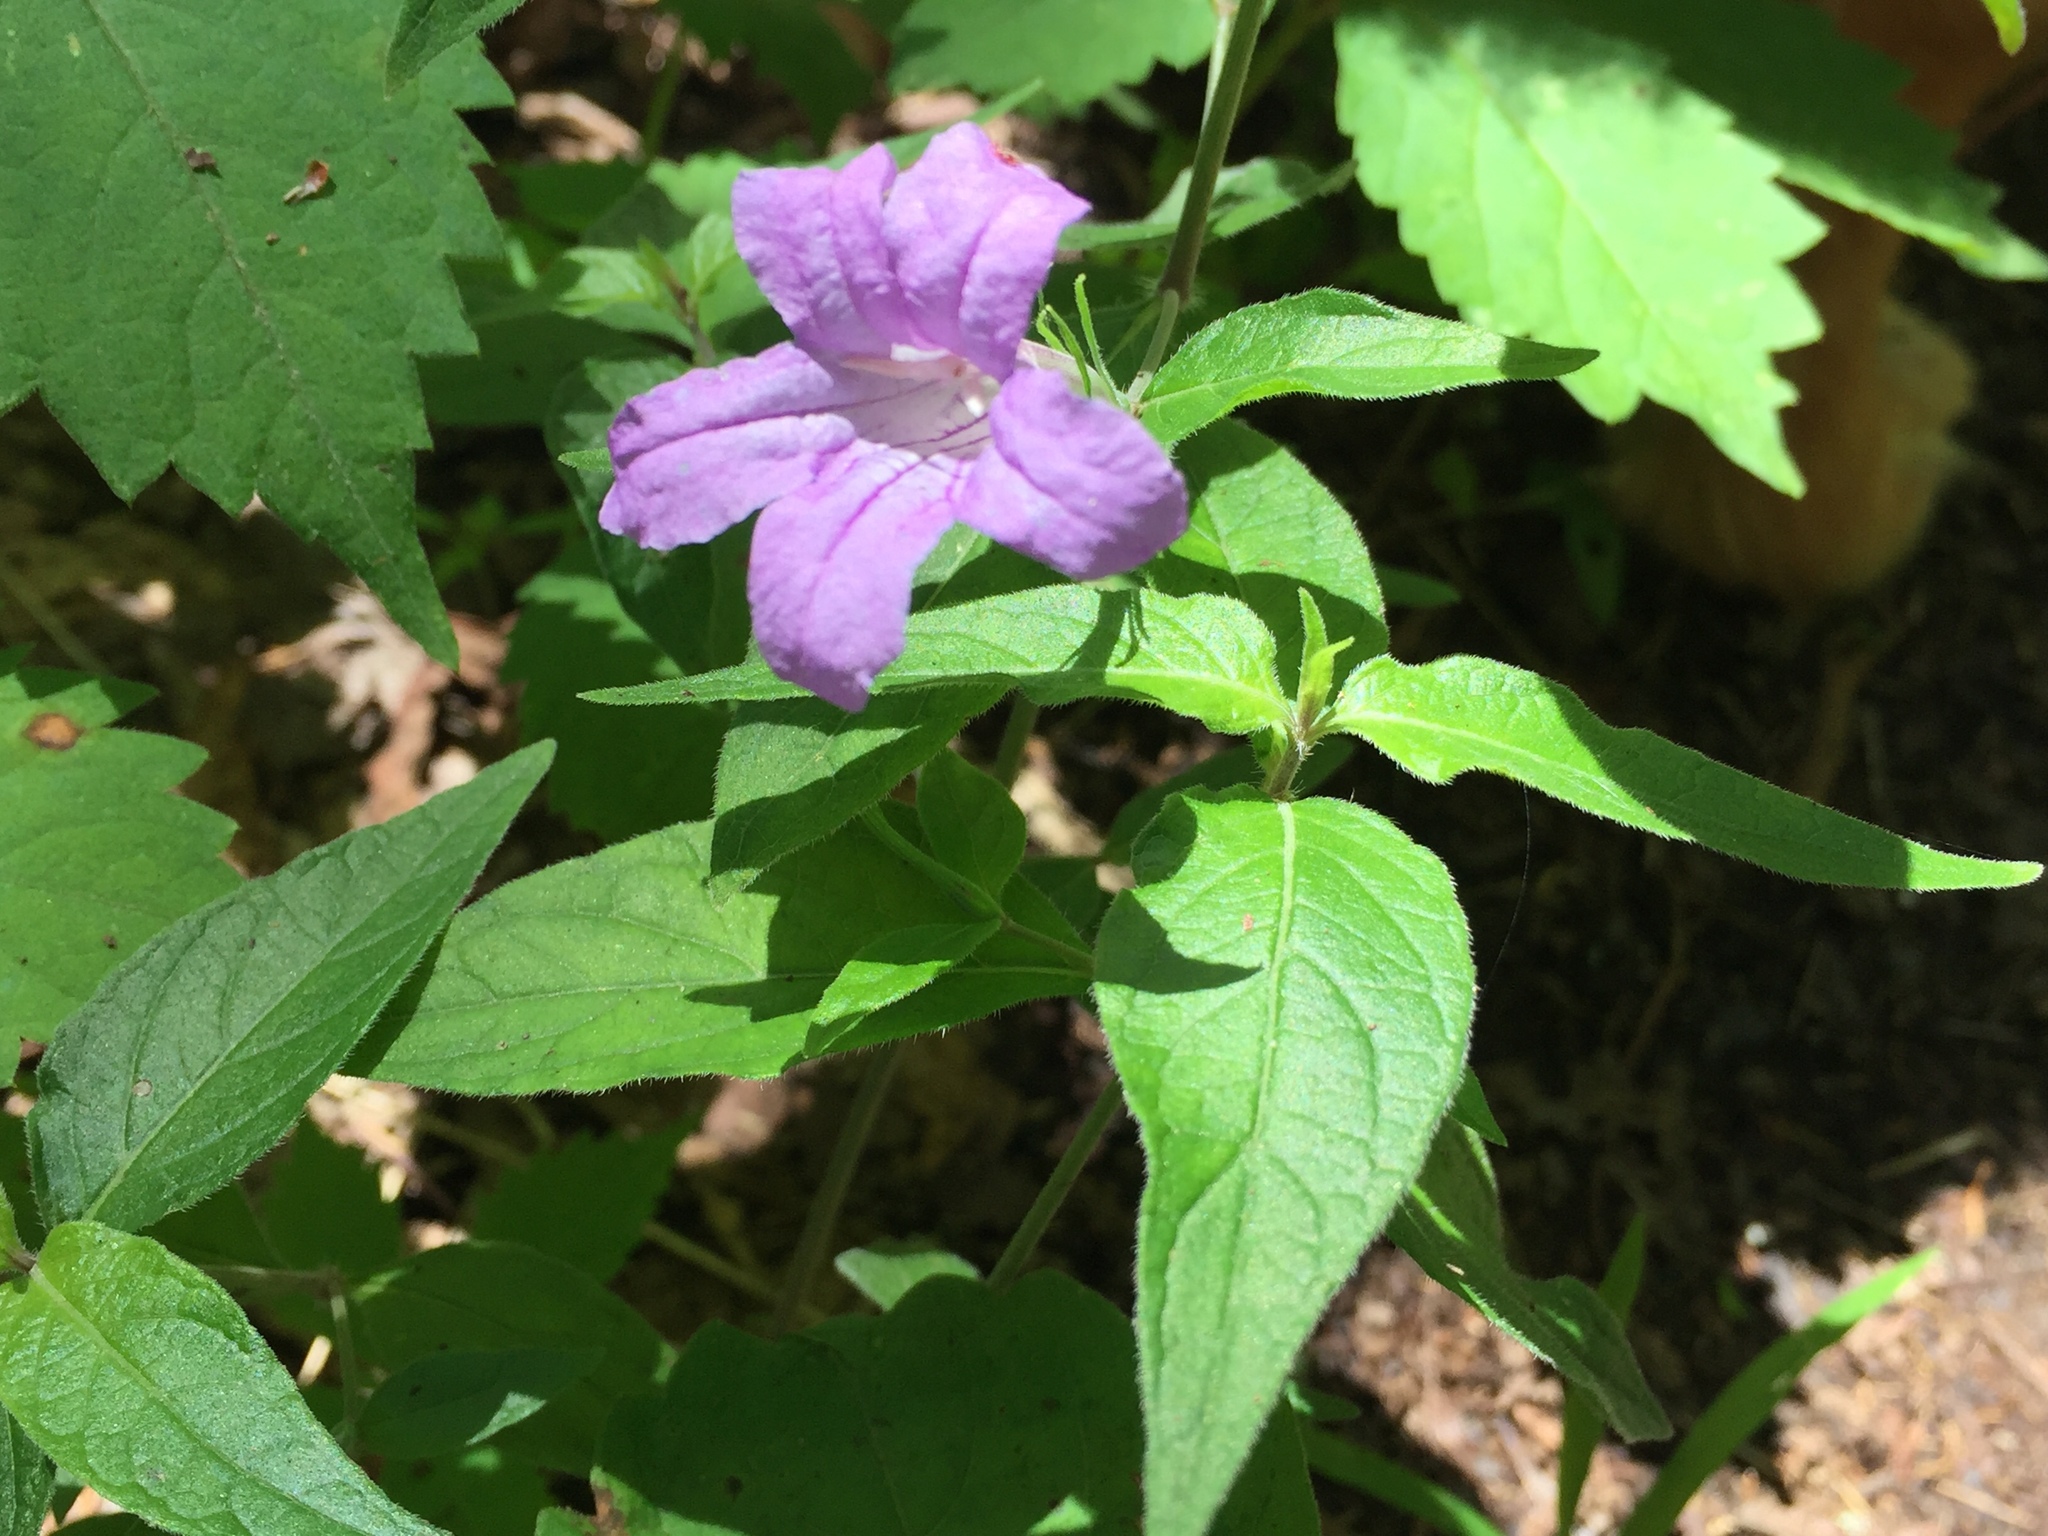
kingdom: Plantae
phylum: Tracheophyta
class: Magnoliopsida
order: Lamiales
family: Acanthaceae
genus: Ruellia
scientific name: Ruellia pedunculata
